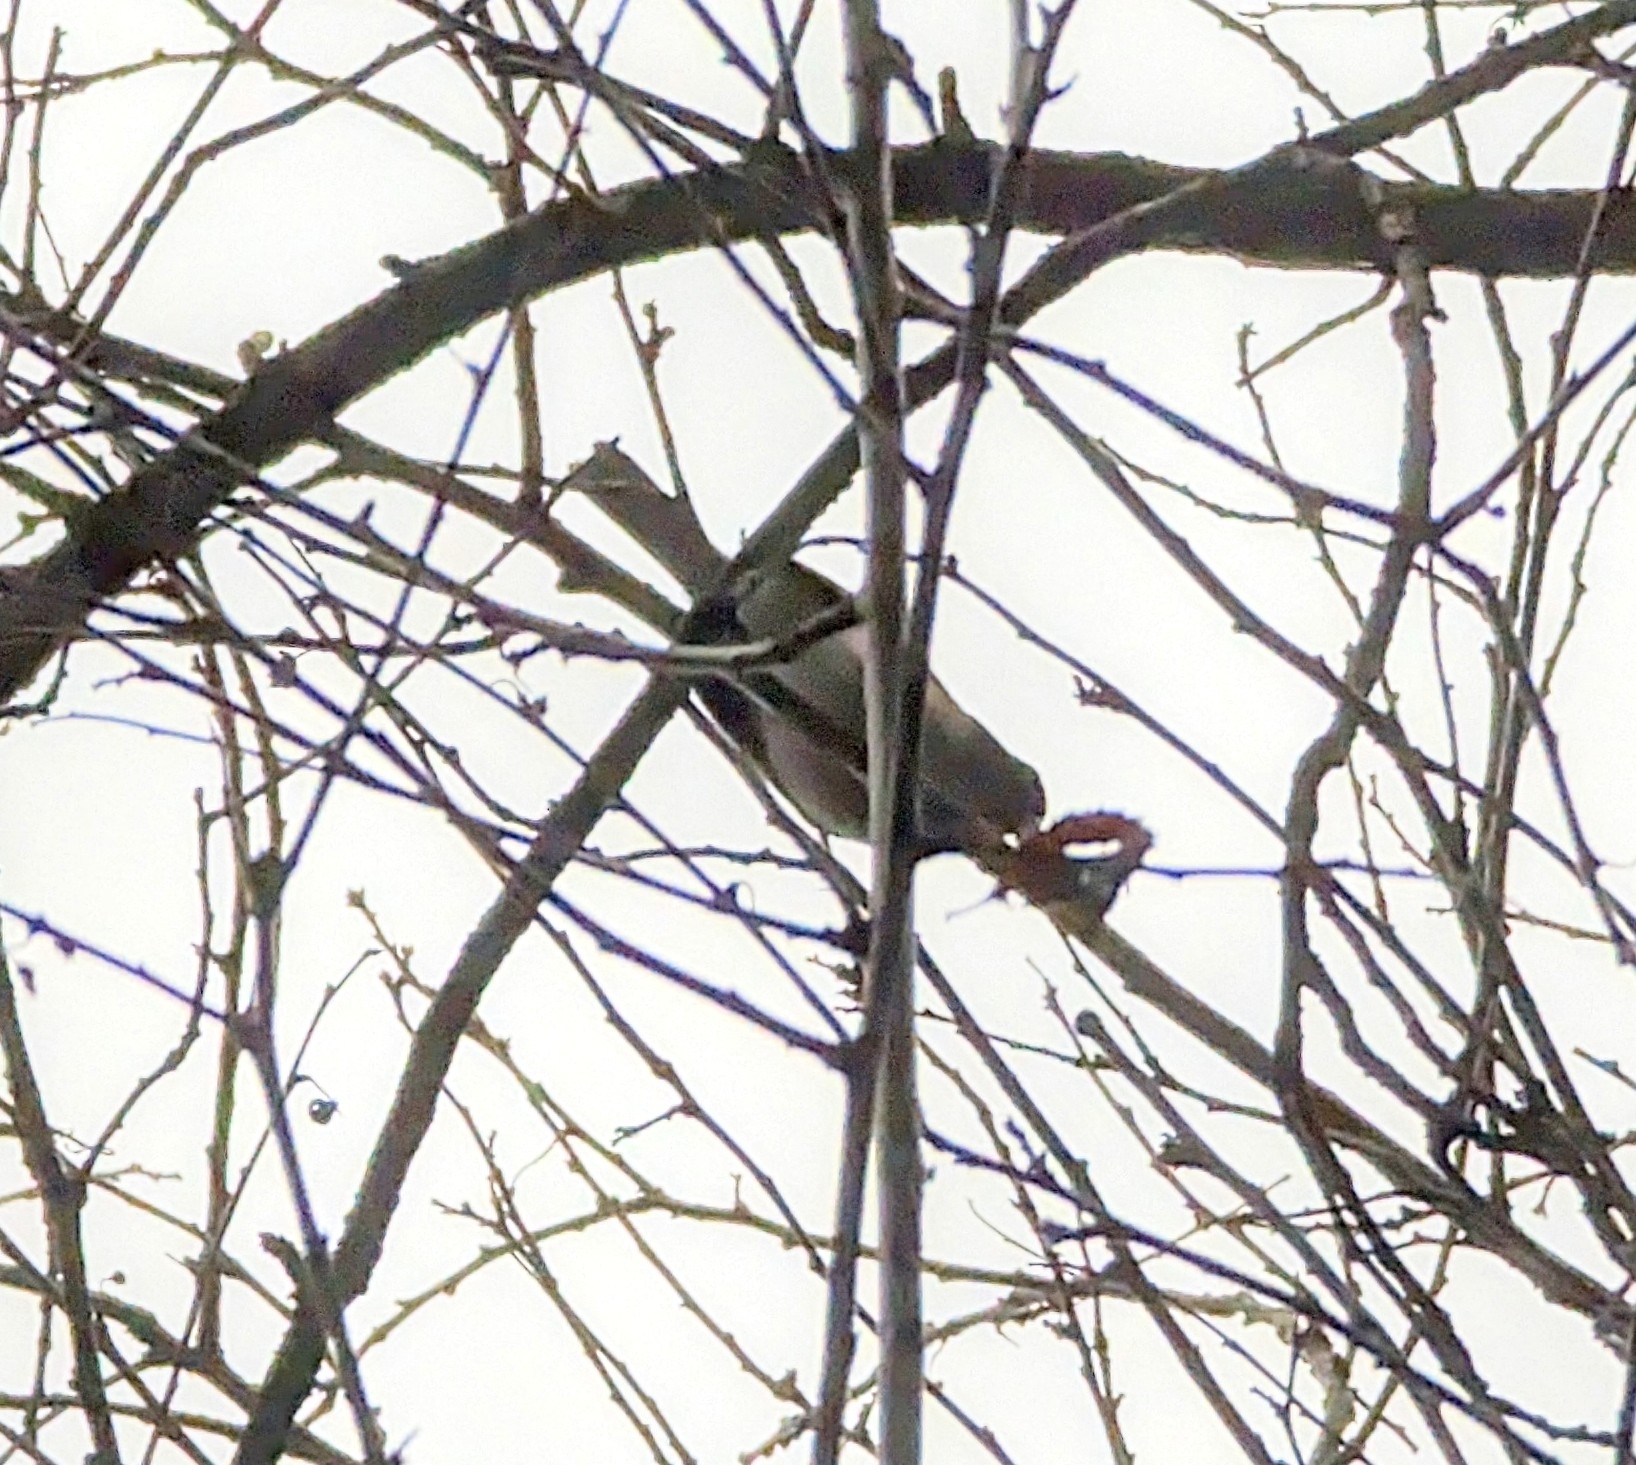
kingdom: Animalia
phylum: Chordata
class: Aves
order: Passeriformes
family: Passerellidae
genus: Junco
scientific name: Junco hyemalis
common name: Dark-eyed junco
